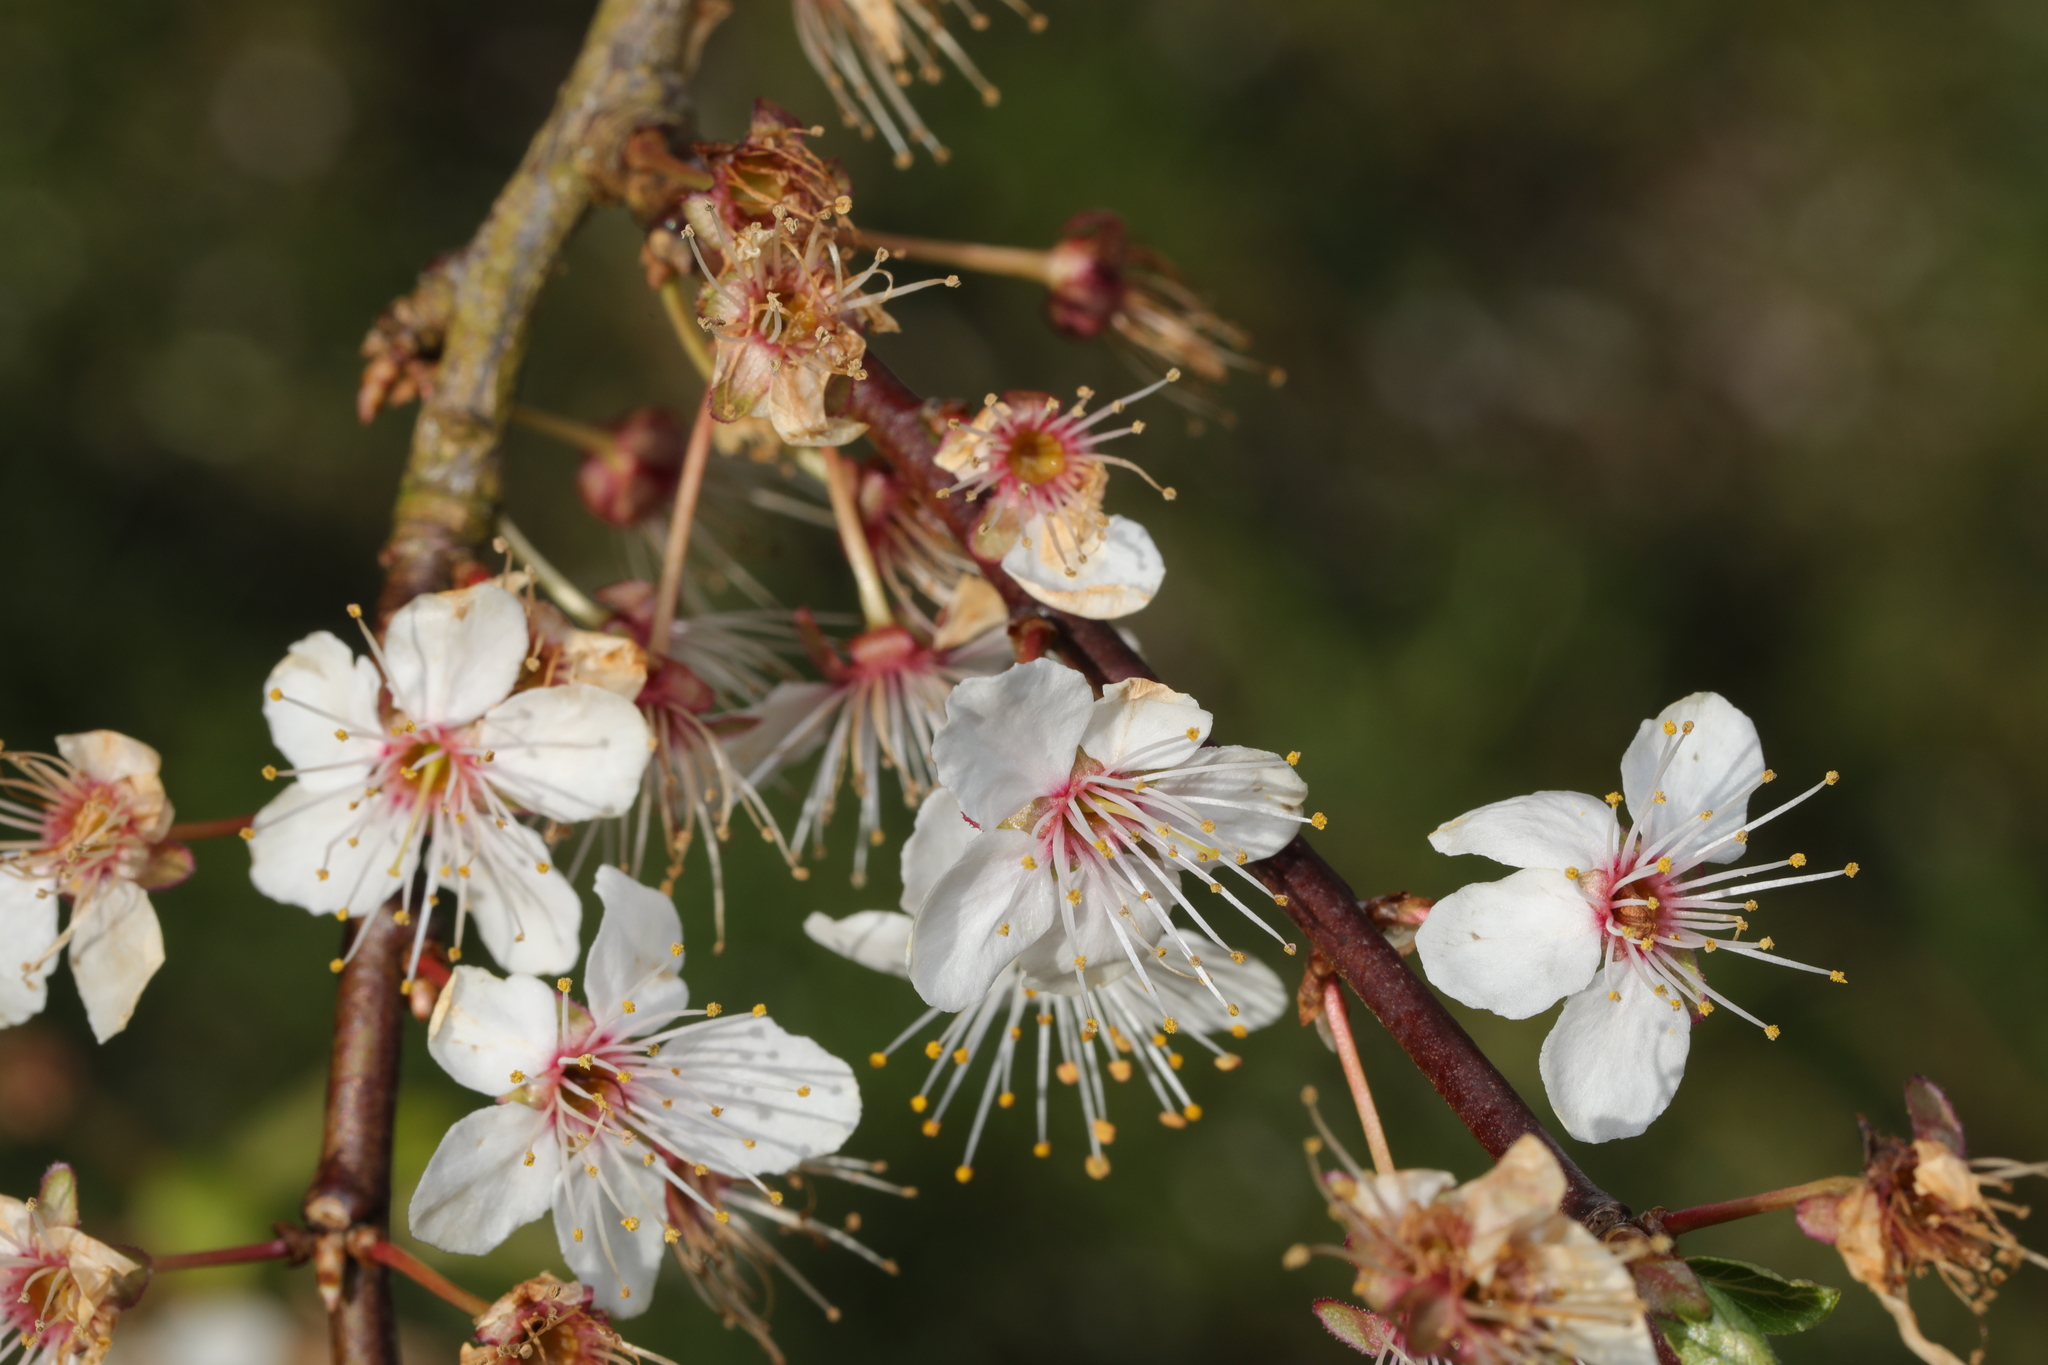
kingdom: Plantae
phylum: Tracheophyta
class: Magnoliopsida
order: Rosales
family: Rosaceae
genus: Prunus
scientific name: Prunus cerasifera
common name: Cherry plum
